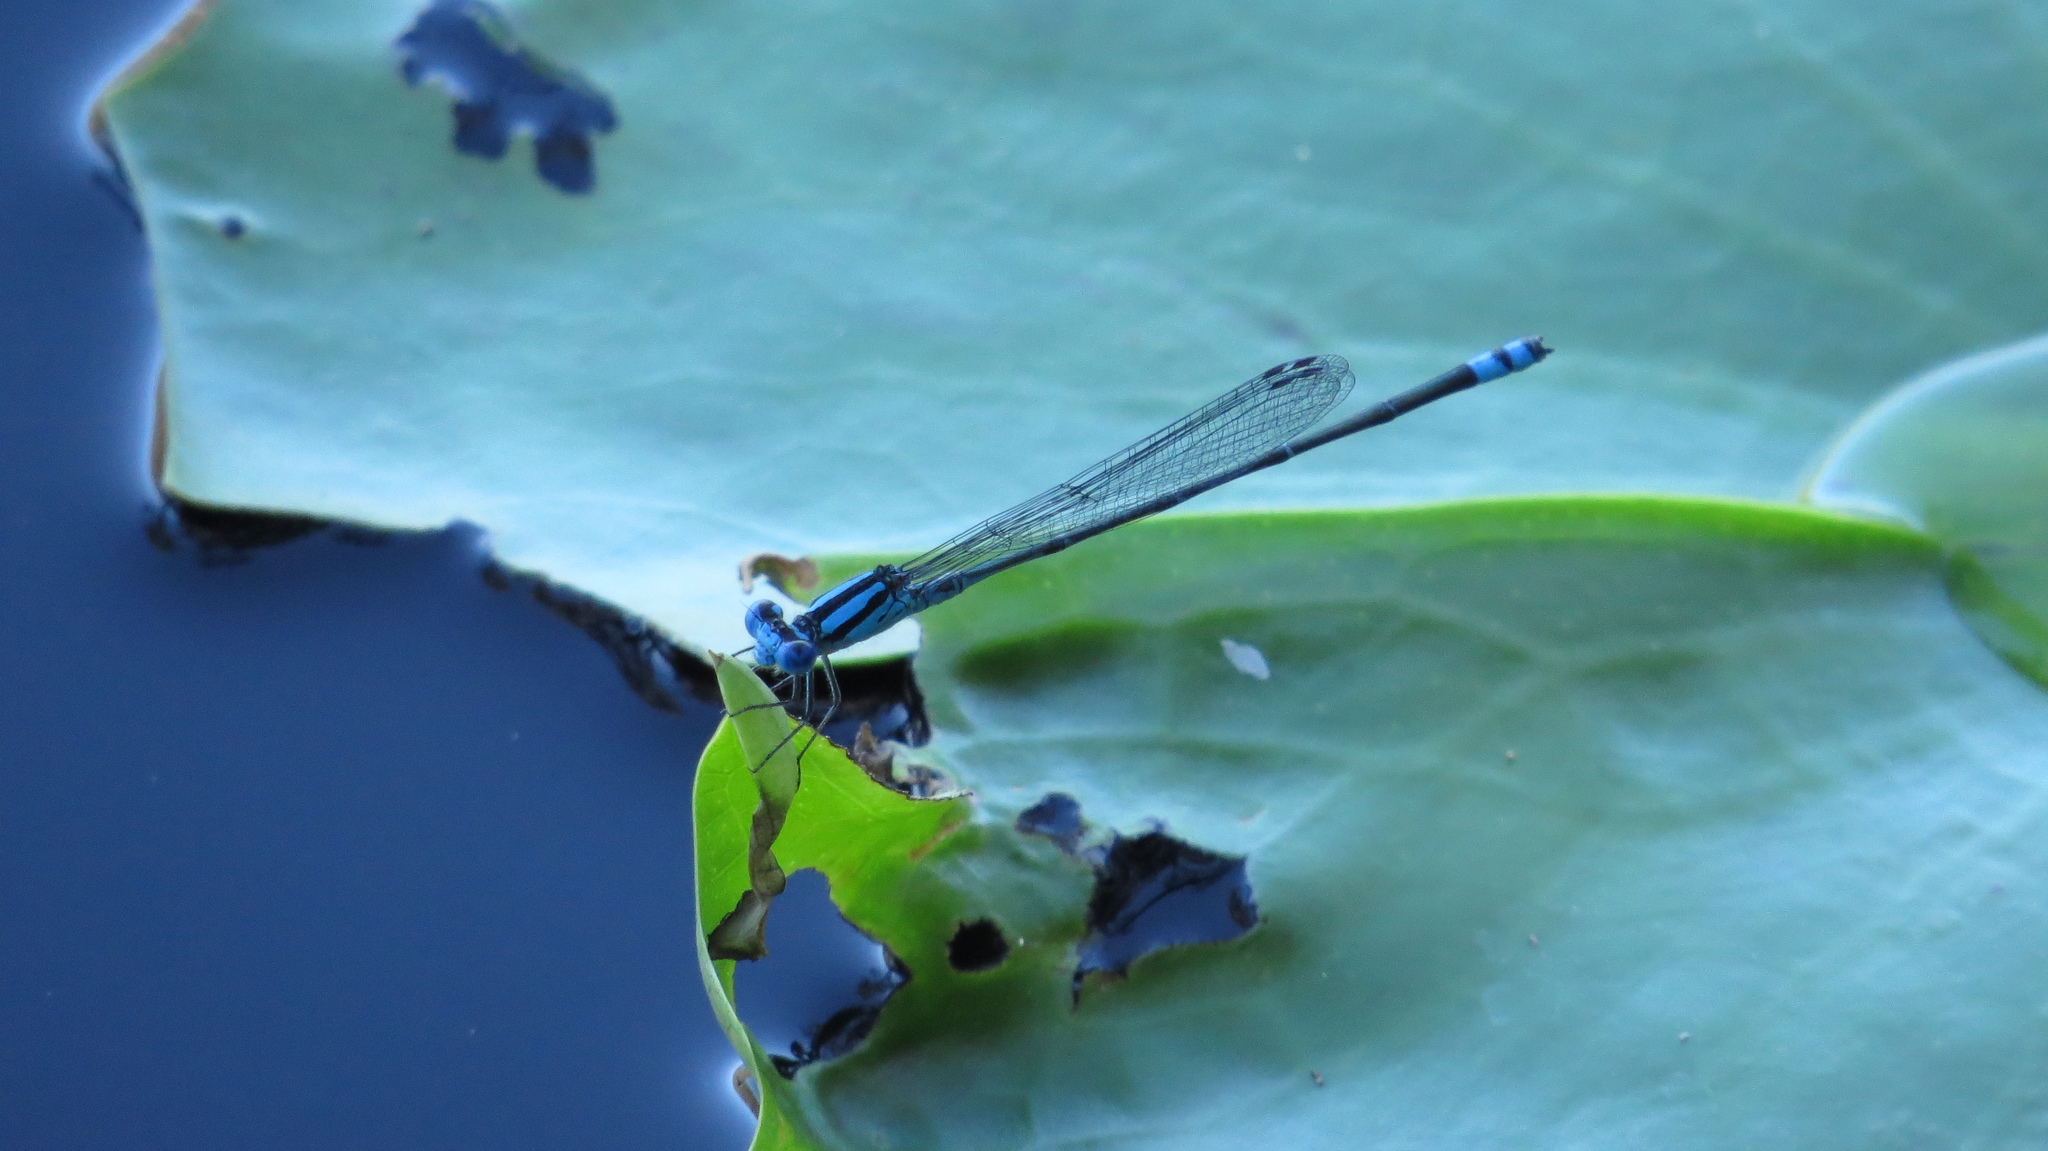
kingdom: Animalia
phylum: Arthropoda
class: Insecta
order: Odonata
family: Coenagrionidae
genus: Pseudagrion
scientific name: Pseudagrion microcephalum
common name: Blue riverdamsel
